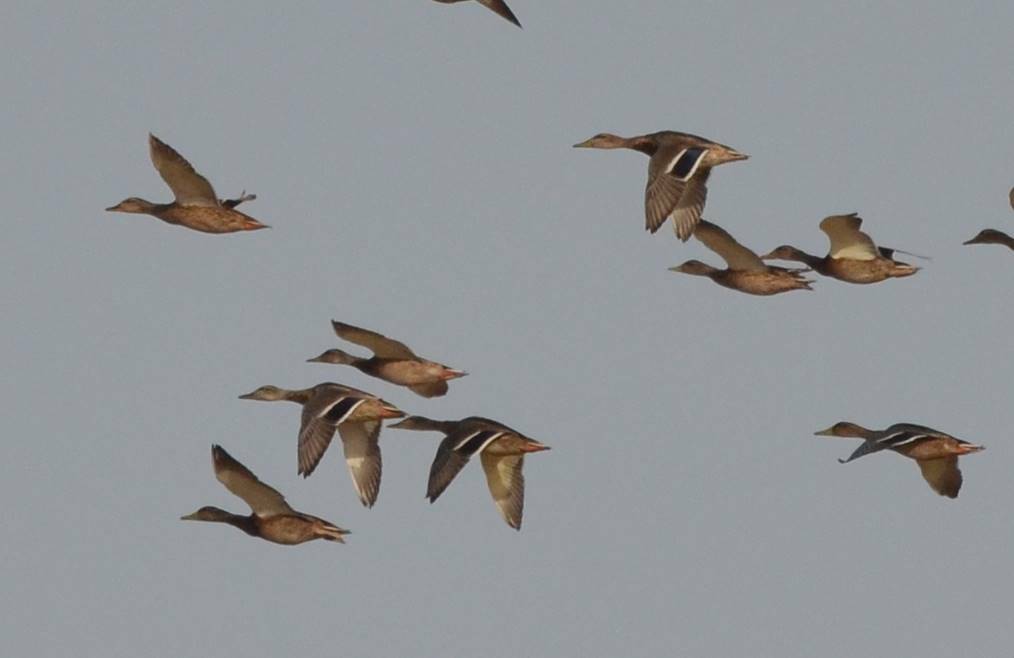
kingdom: Animalia
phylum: Chordata
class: Aves
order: Anseriformes
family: Anatidae
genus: Anas
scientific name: Anas platyrhynchos
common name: Mallard
